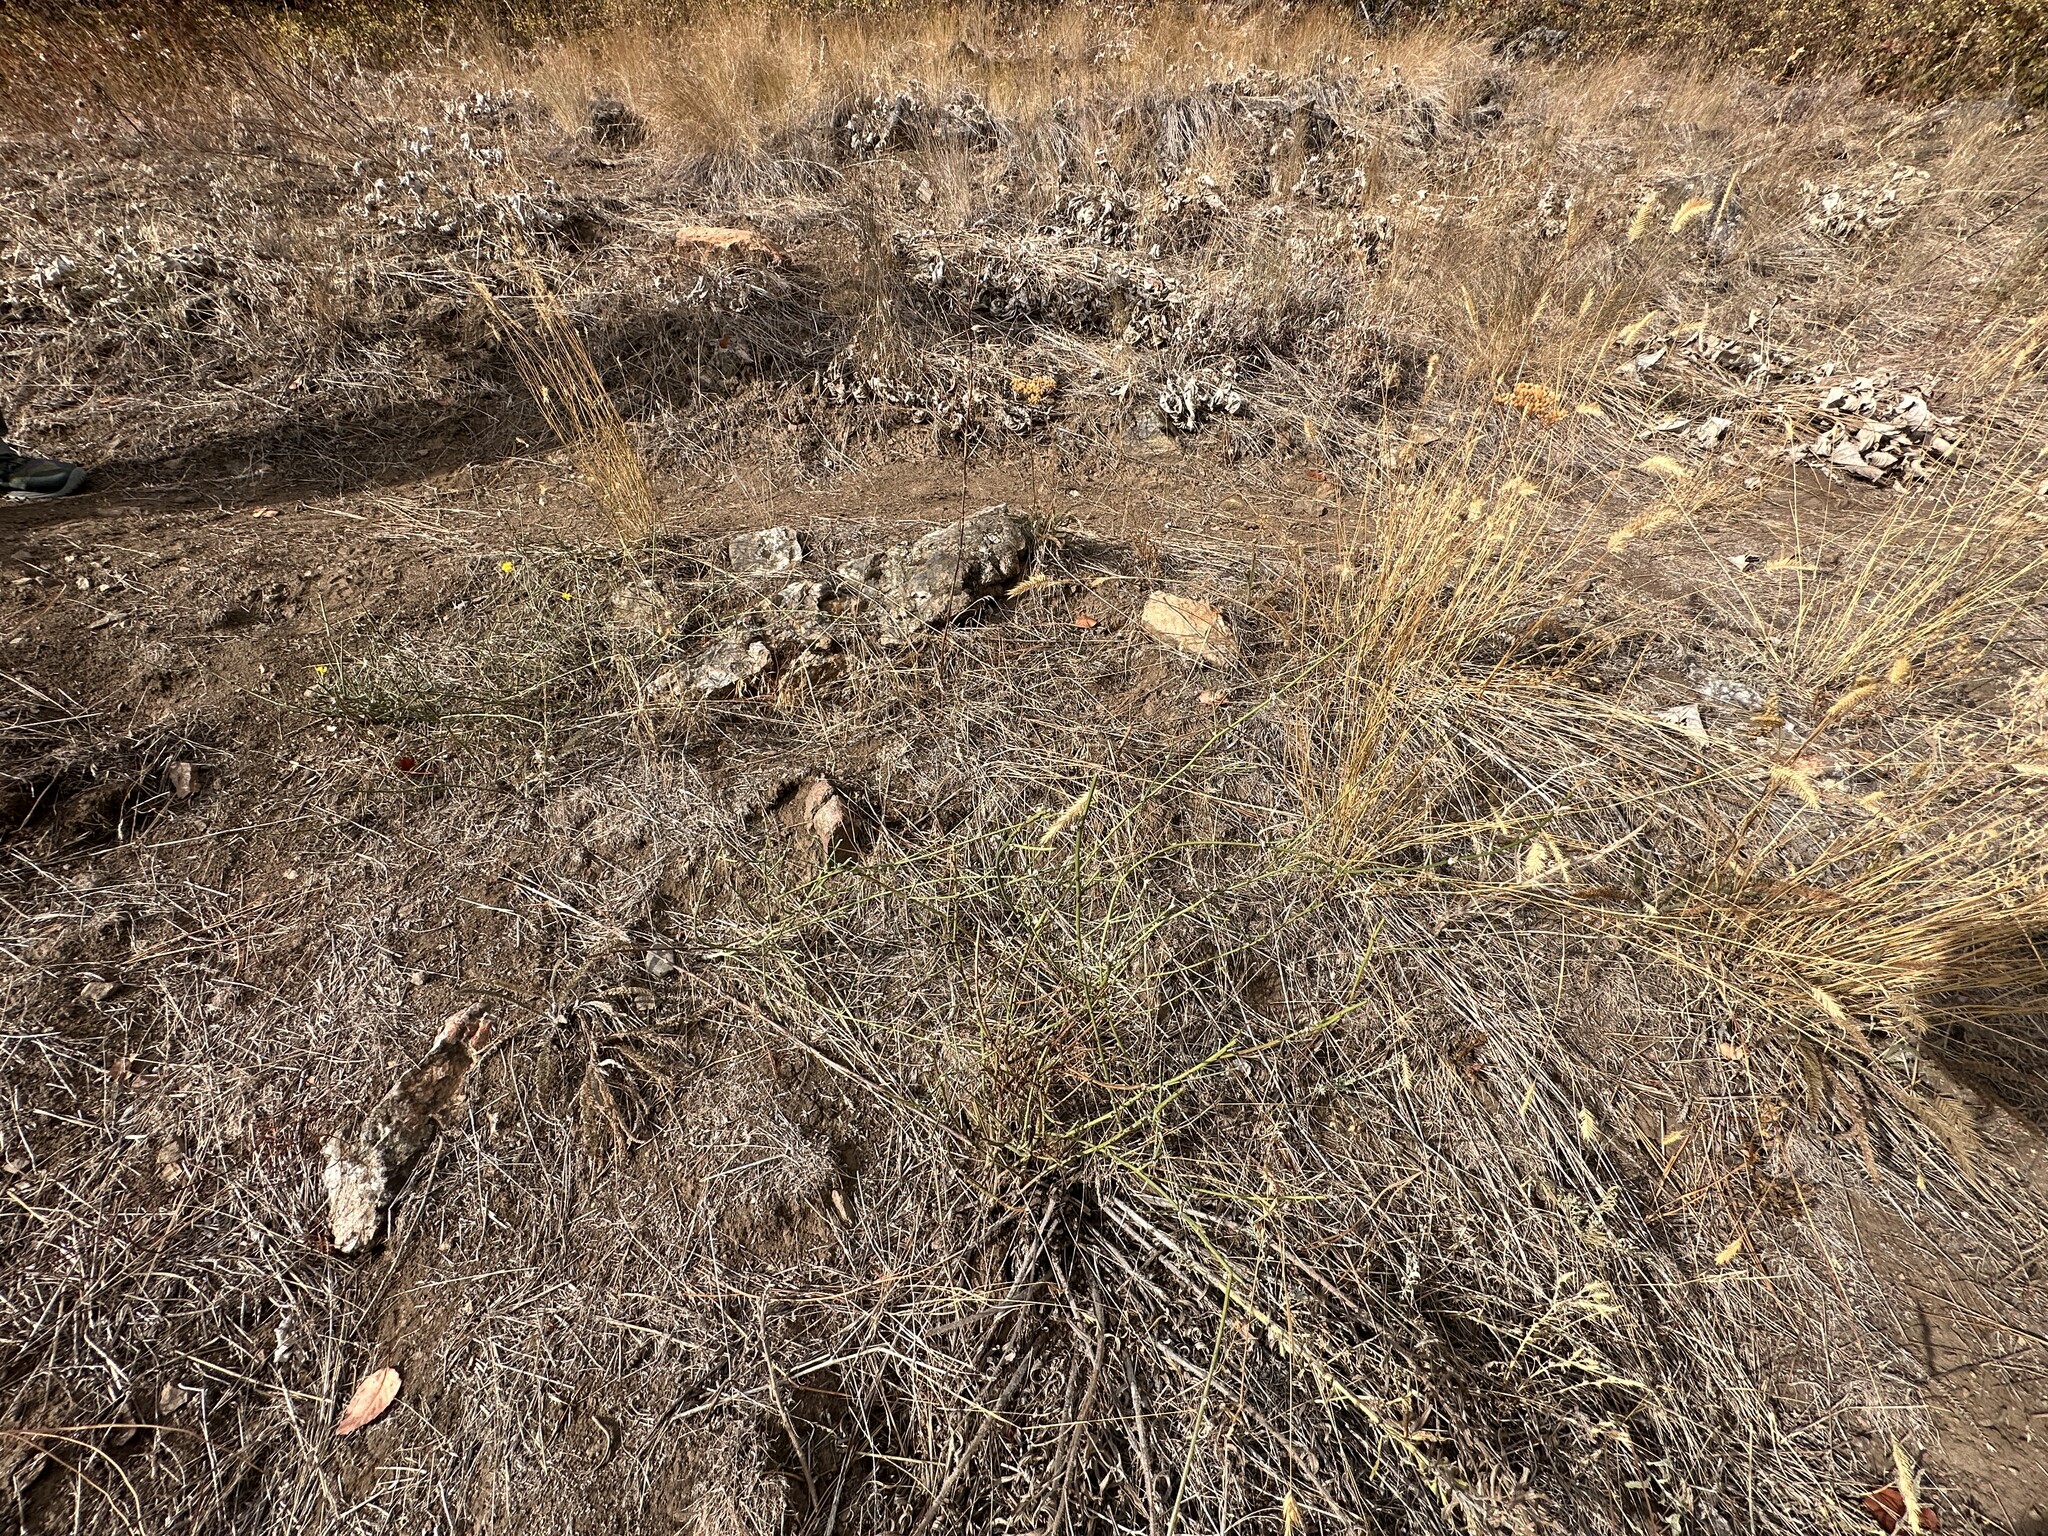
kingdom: Plantae
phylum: Tracheophyta
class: Magnoliopsida
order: Asterales
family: Asteraceae
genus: Chondrilla
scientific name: Chondrilla juncea
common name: Skeleton weed
